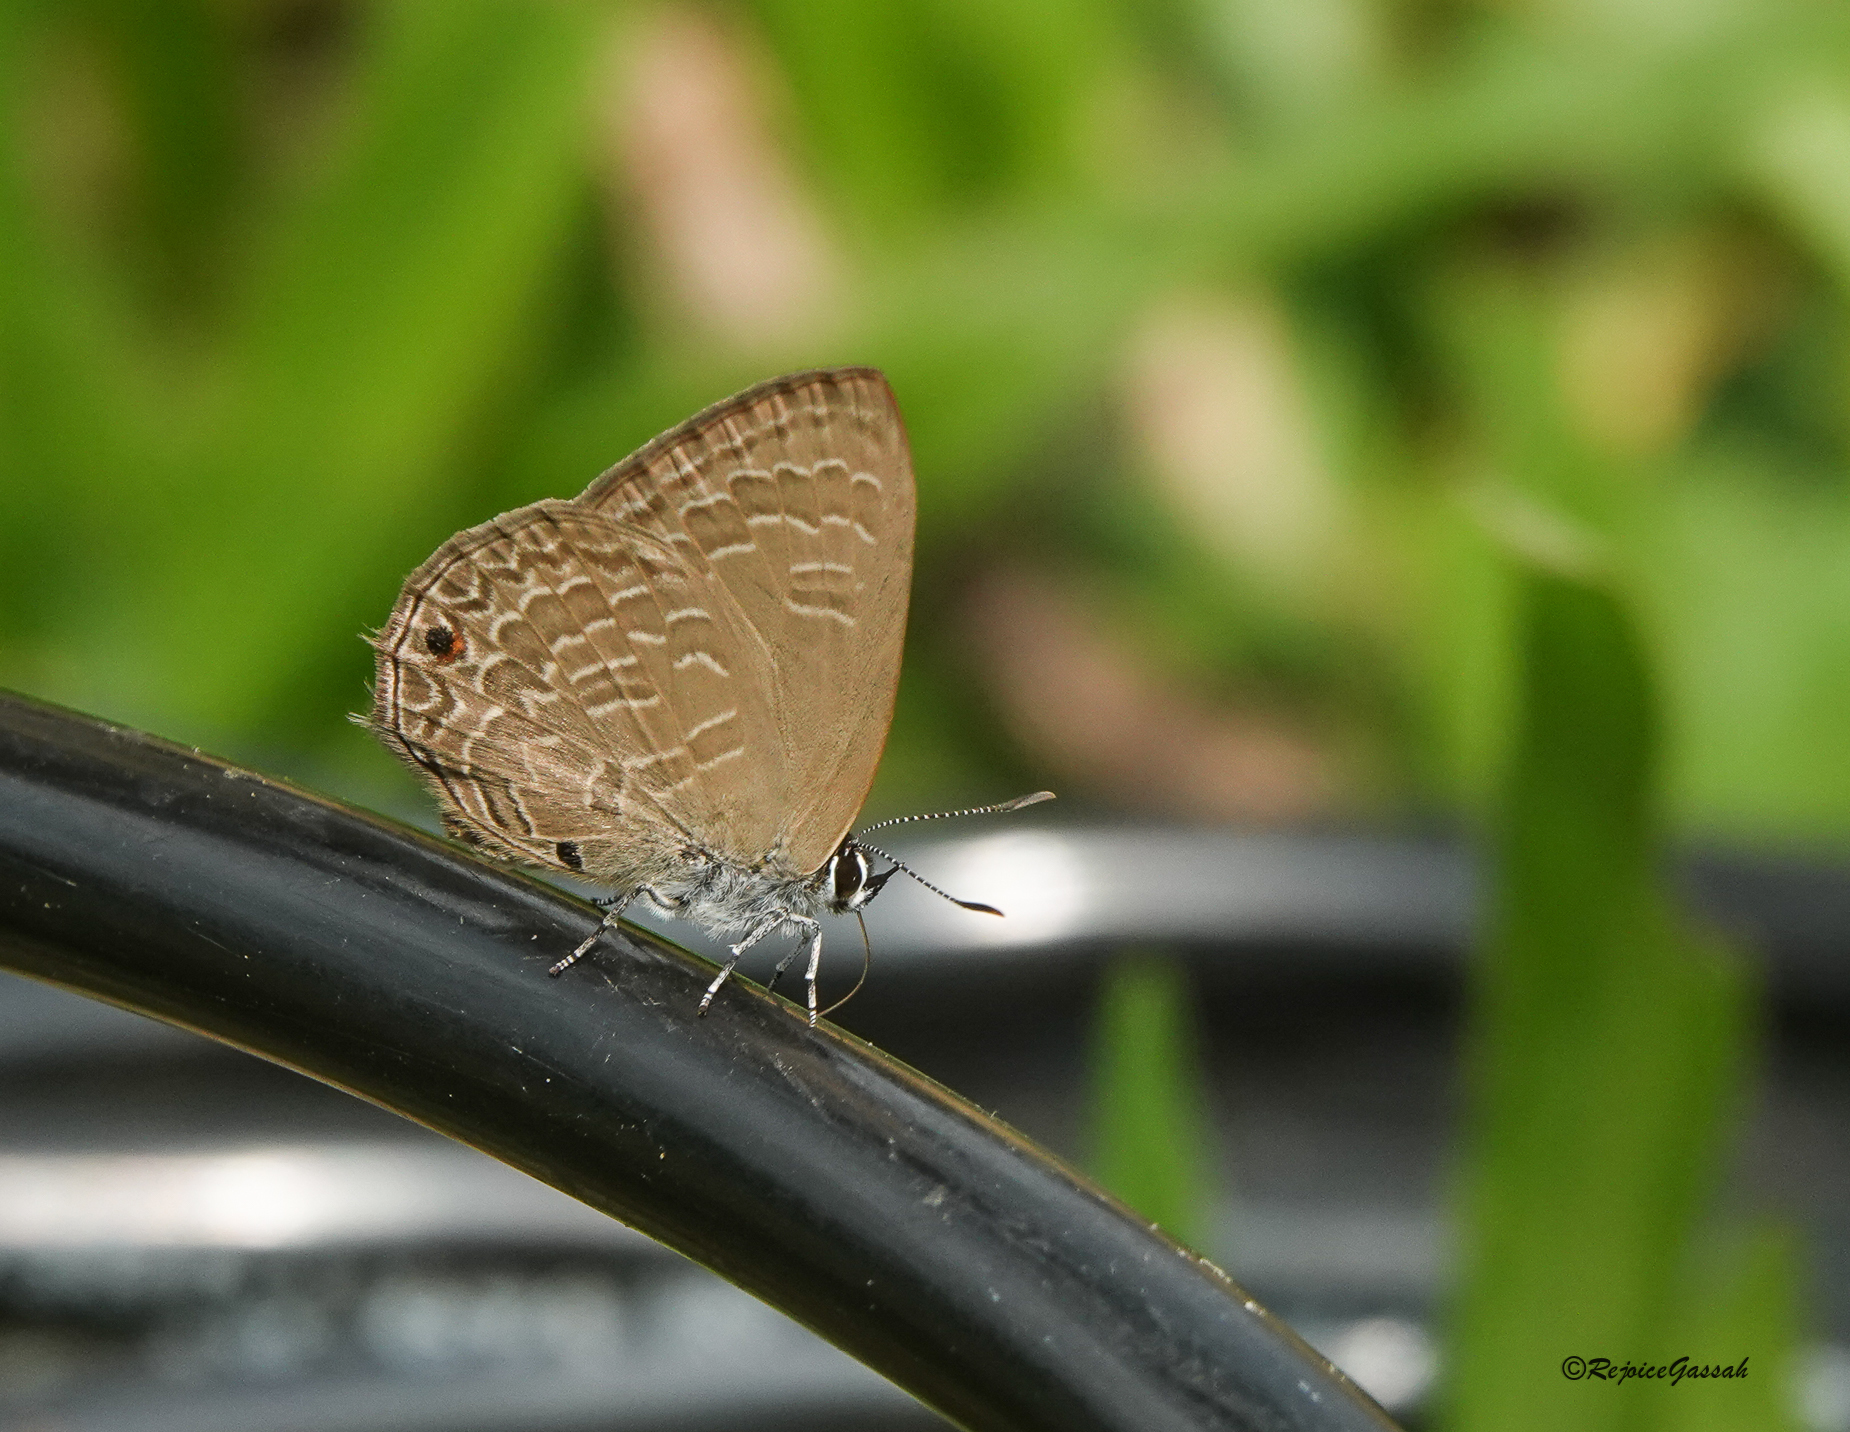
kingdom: Animalia
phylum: Arthropoda
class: Insecta
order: Lepidoptera
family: Lycaenidae
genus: Anthene
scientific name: Anthene emolus
